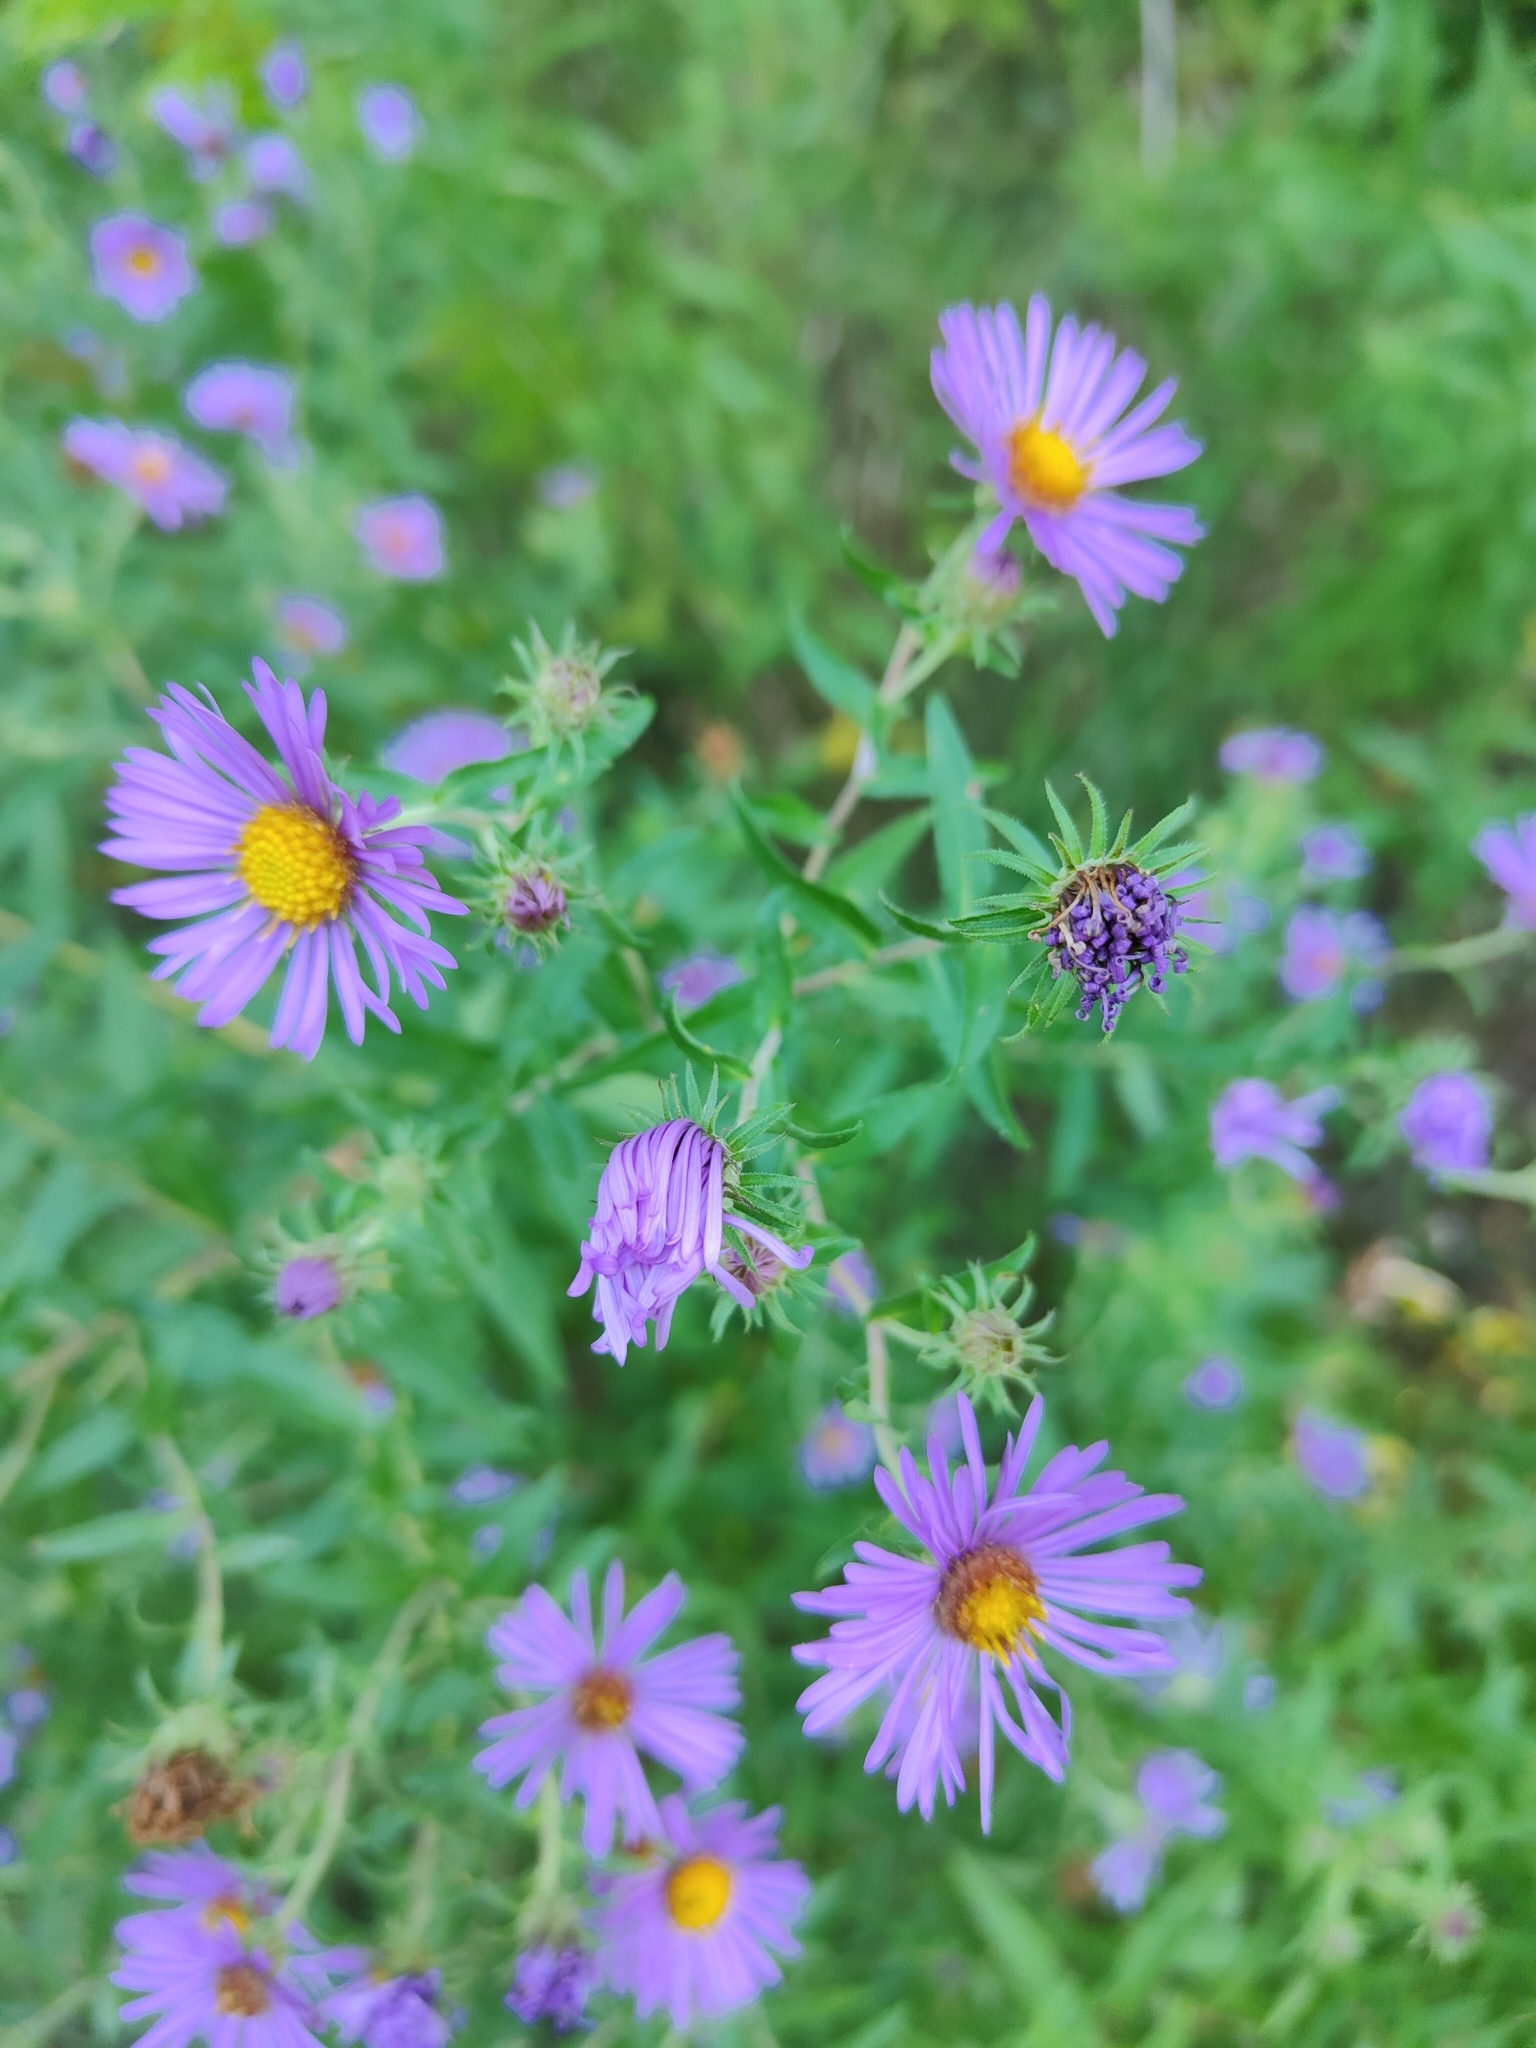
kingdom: Plantae
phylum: Tracheophyta
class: Magnoliopsida
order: Asterales
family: Asteraceae
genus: Symphyotrichum
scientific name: Symphyotrichum novae-angliae
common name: Michaelmas daisy
